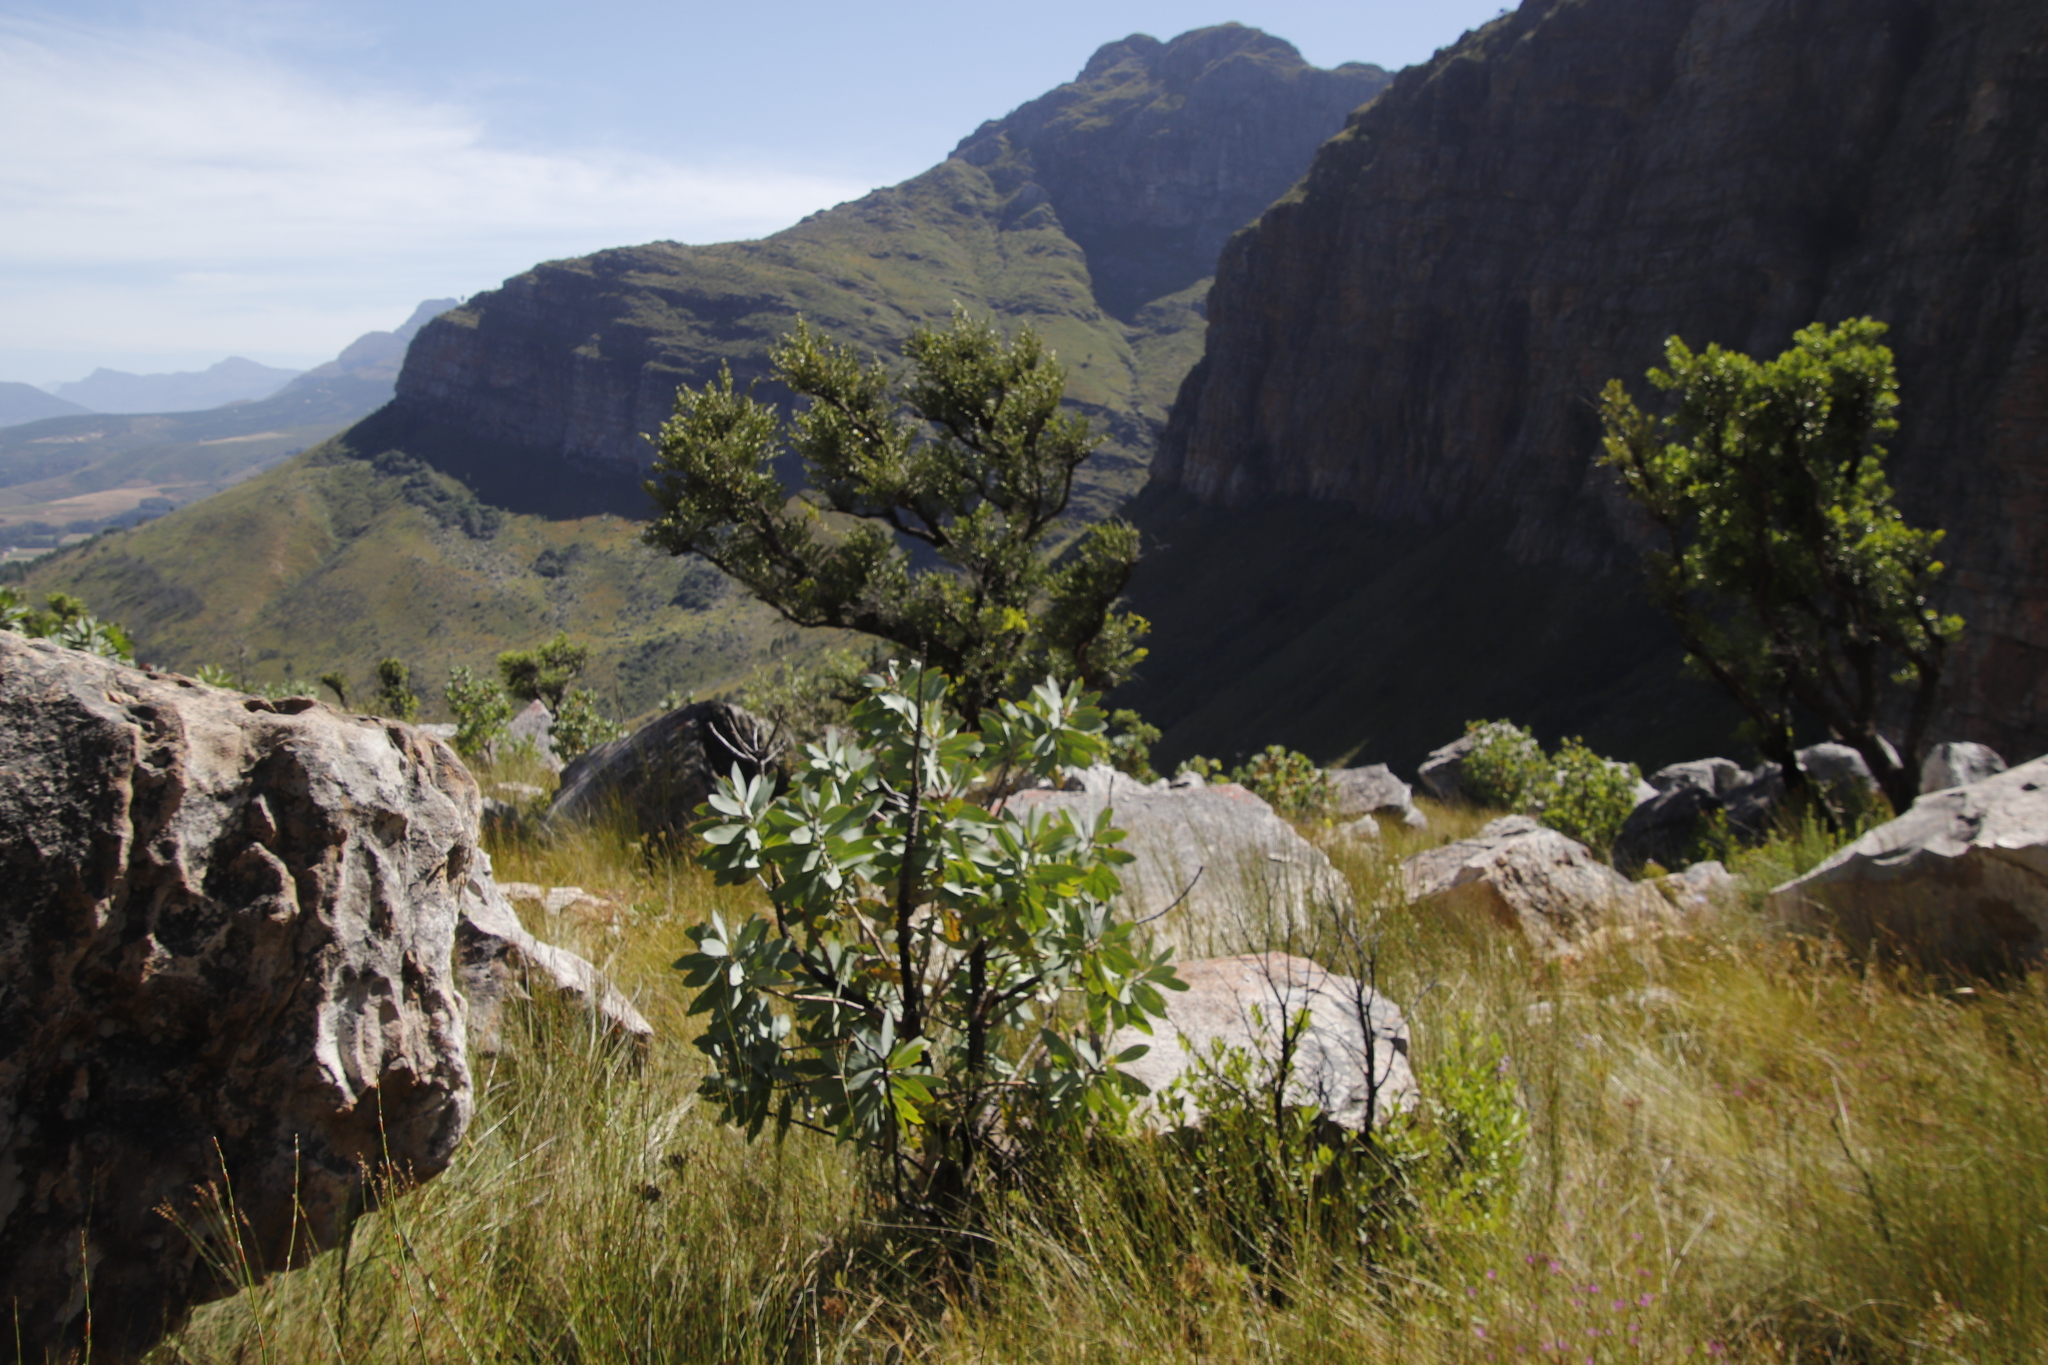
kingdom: Plantae
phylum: Tracheophyta
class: Magnoliopsida
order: Proteales
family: Proteaceae
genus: Protea
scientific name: Protea nitida
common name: Tree protea
